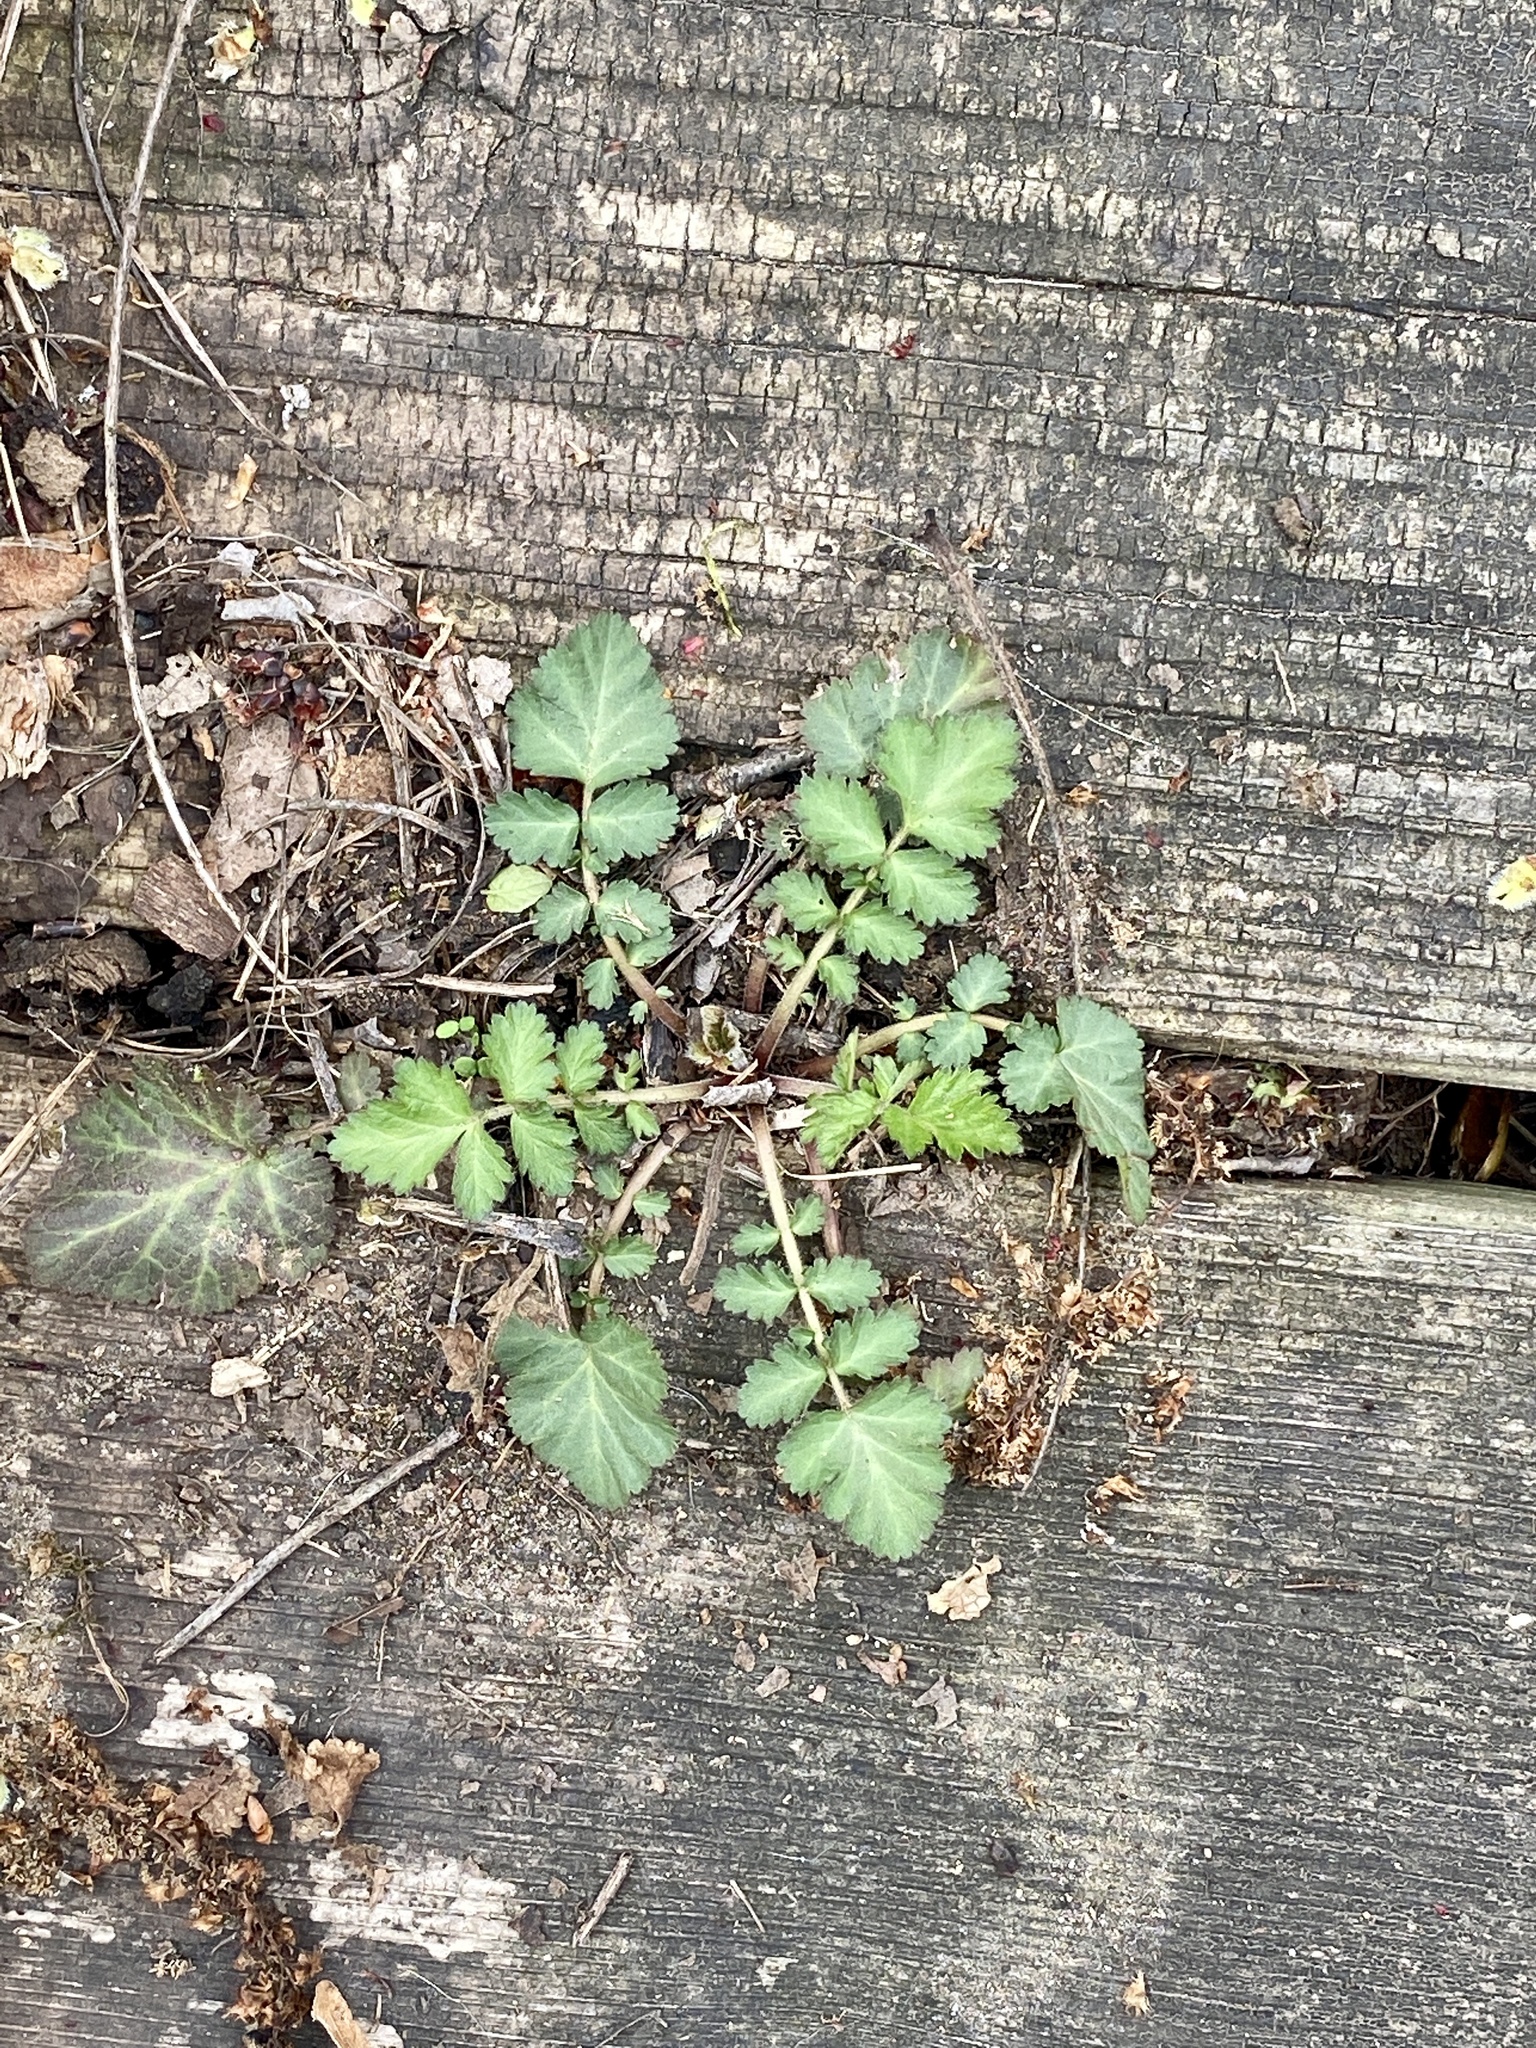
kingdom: Plantae
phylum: Tracheophyta
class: Magnoliopsida
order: Rosales
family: Rosaceae
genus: Geum
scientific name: Geum canadense
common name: White avens
